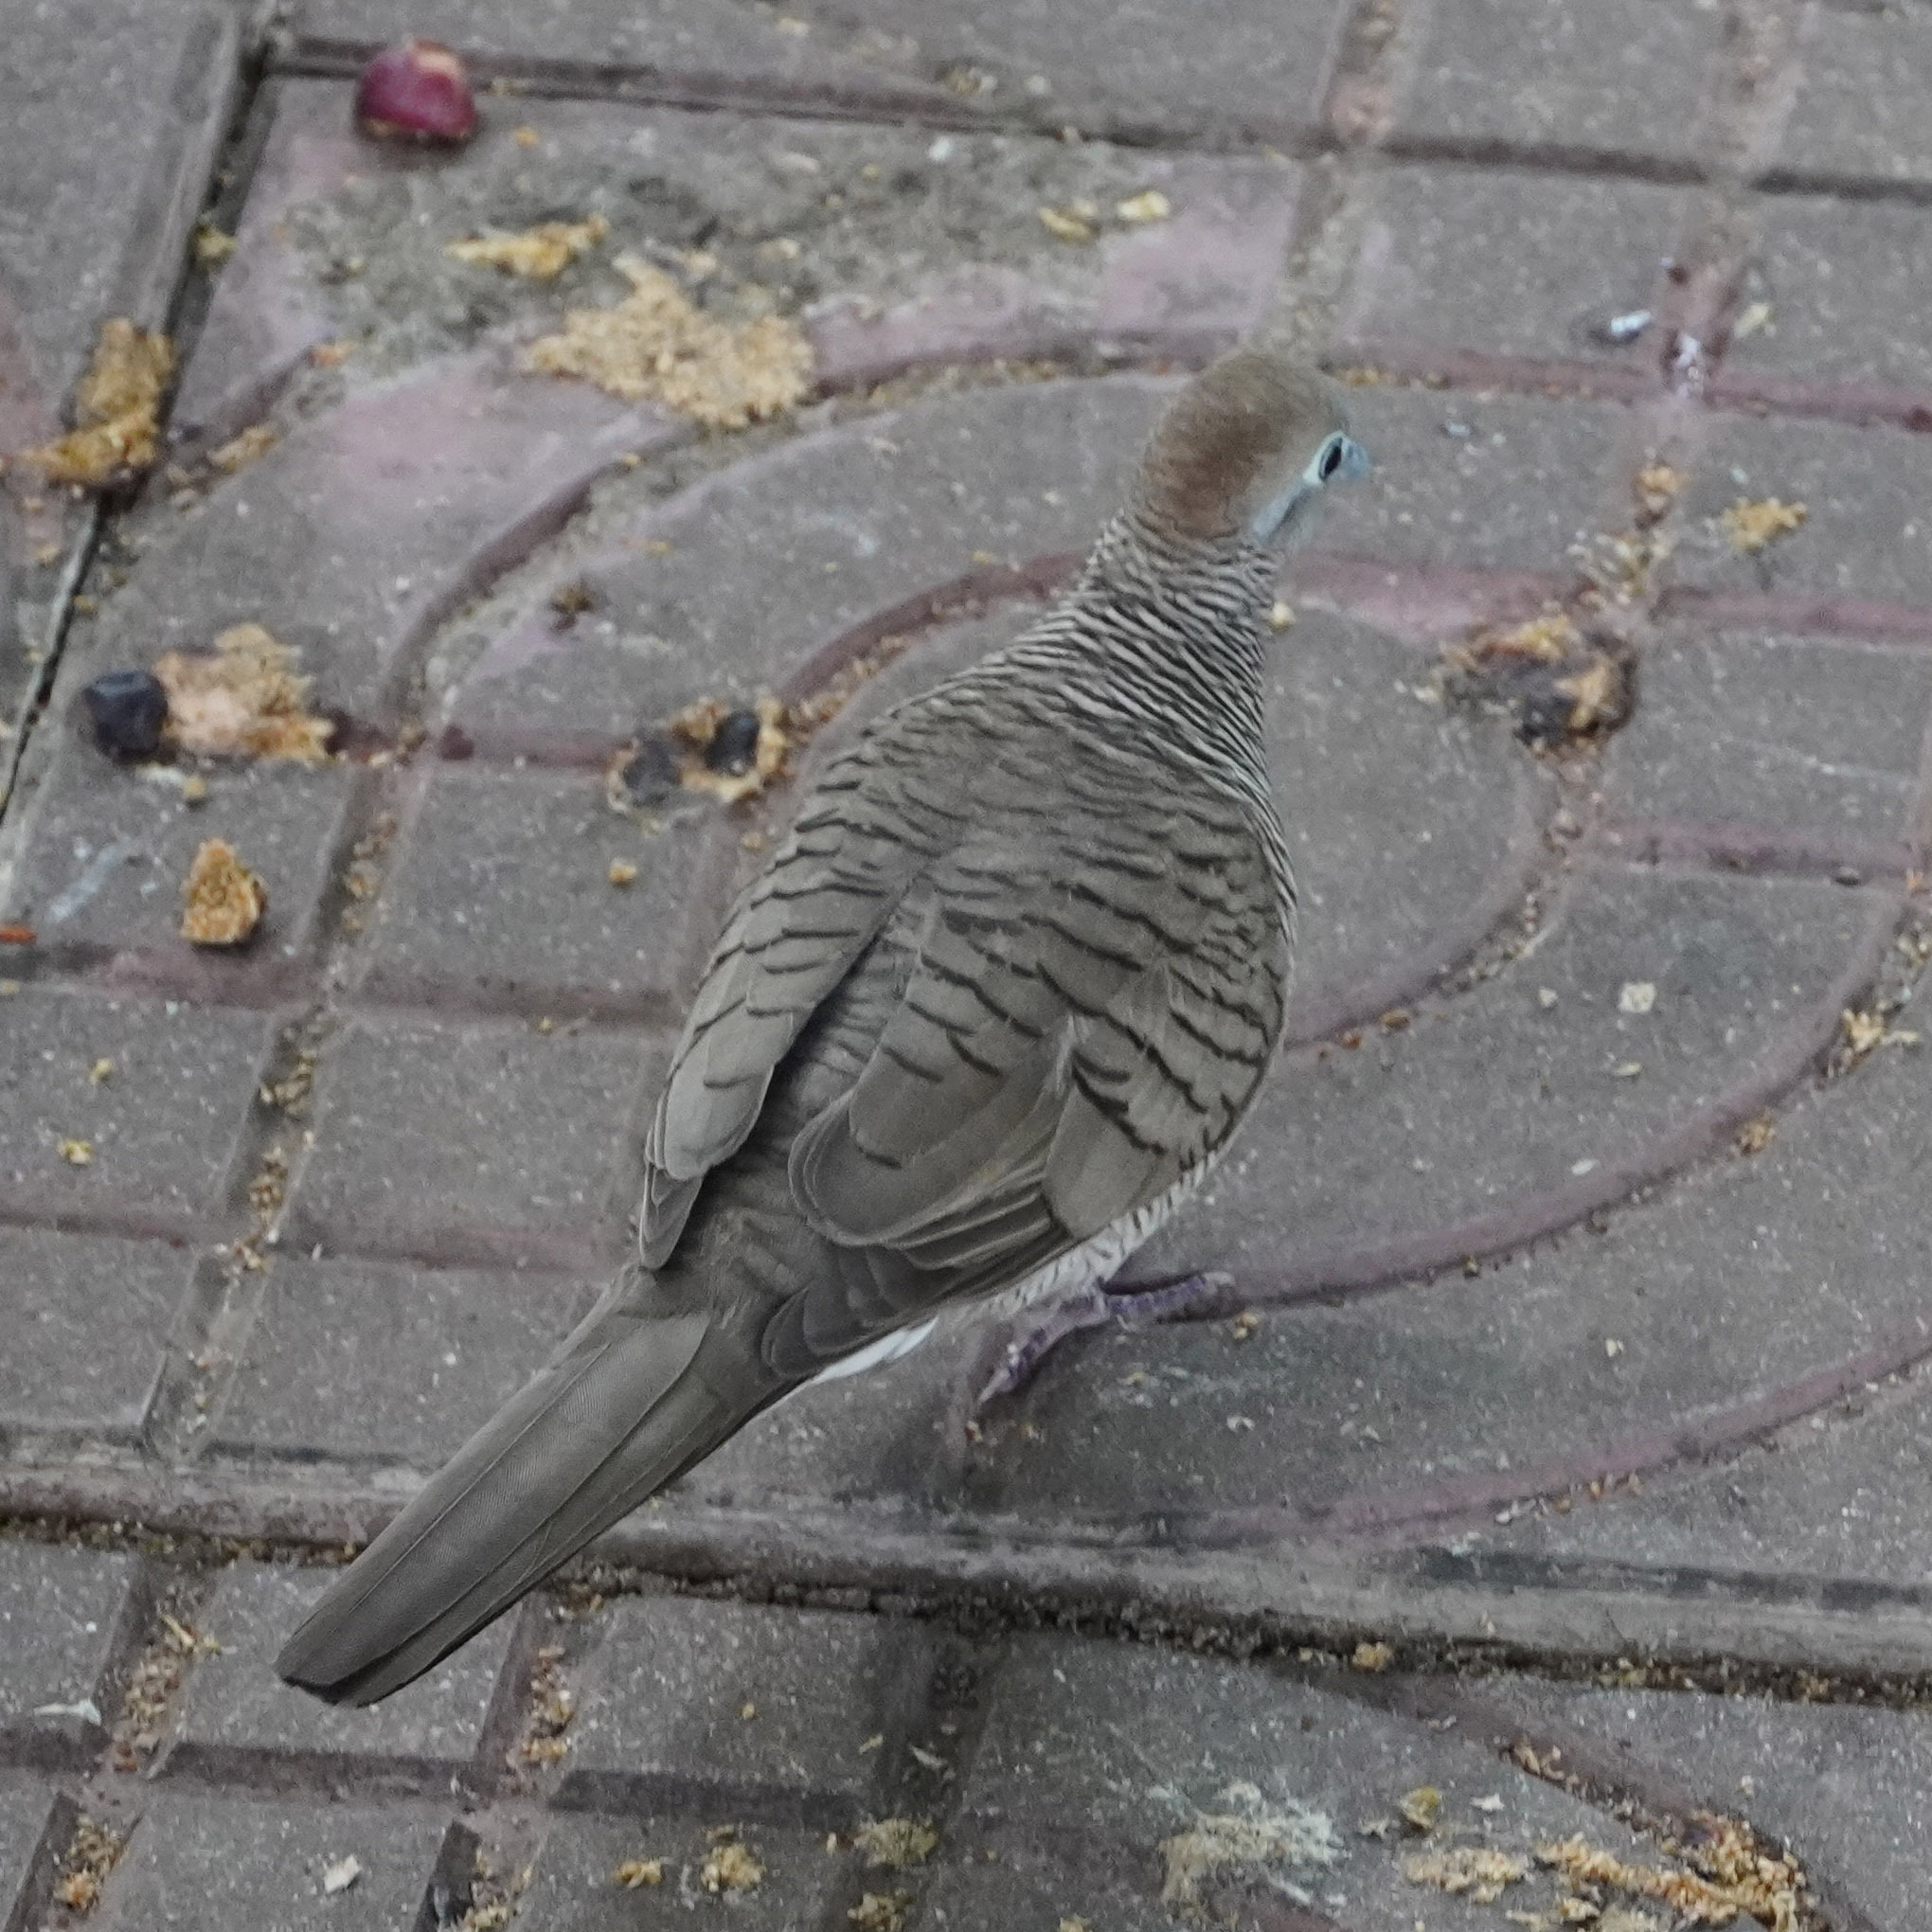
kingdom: Animalia
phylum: Chordata
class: Aves
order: Columbiformes
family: Columbidae
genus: Geopelia
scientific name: Geopelia striata
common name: Zebra dove
